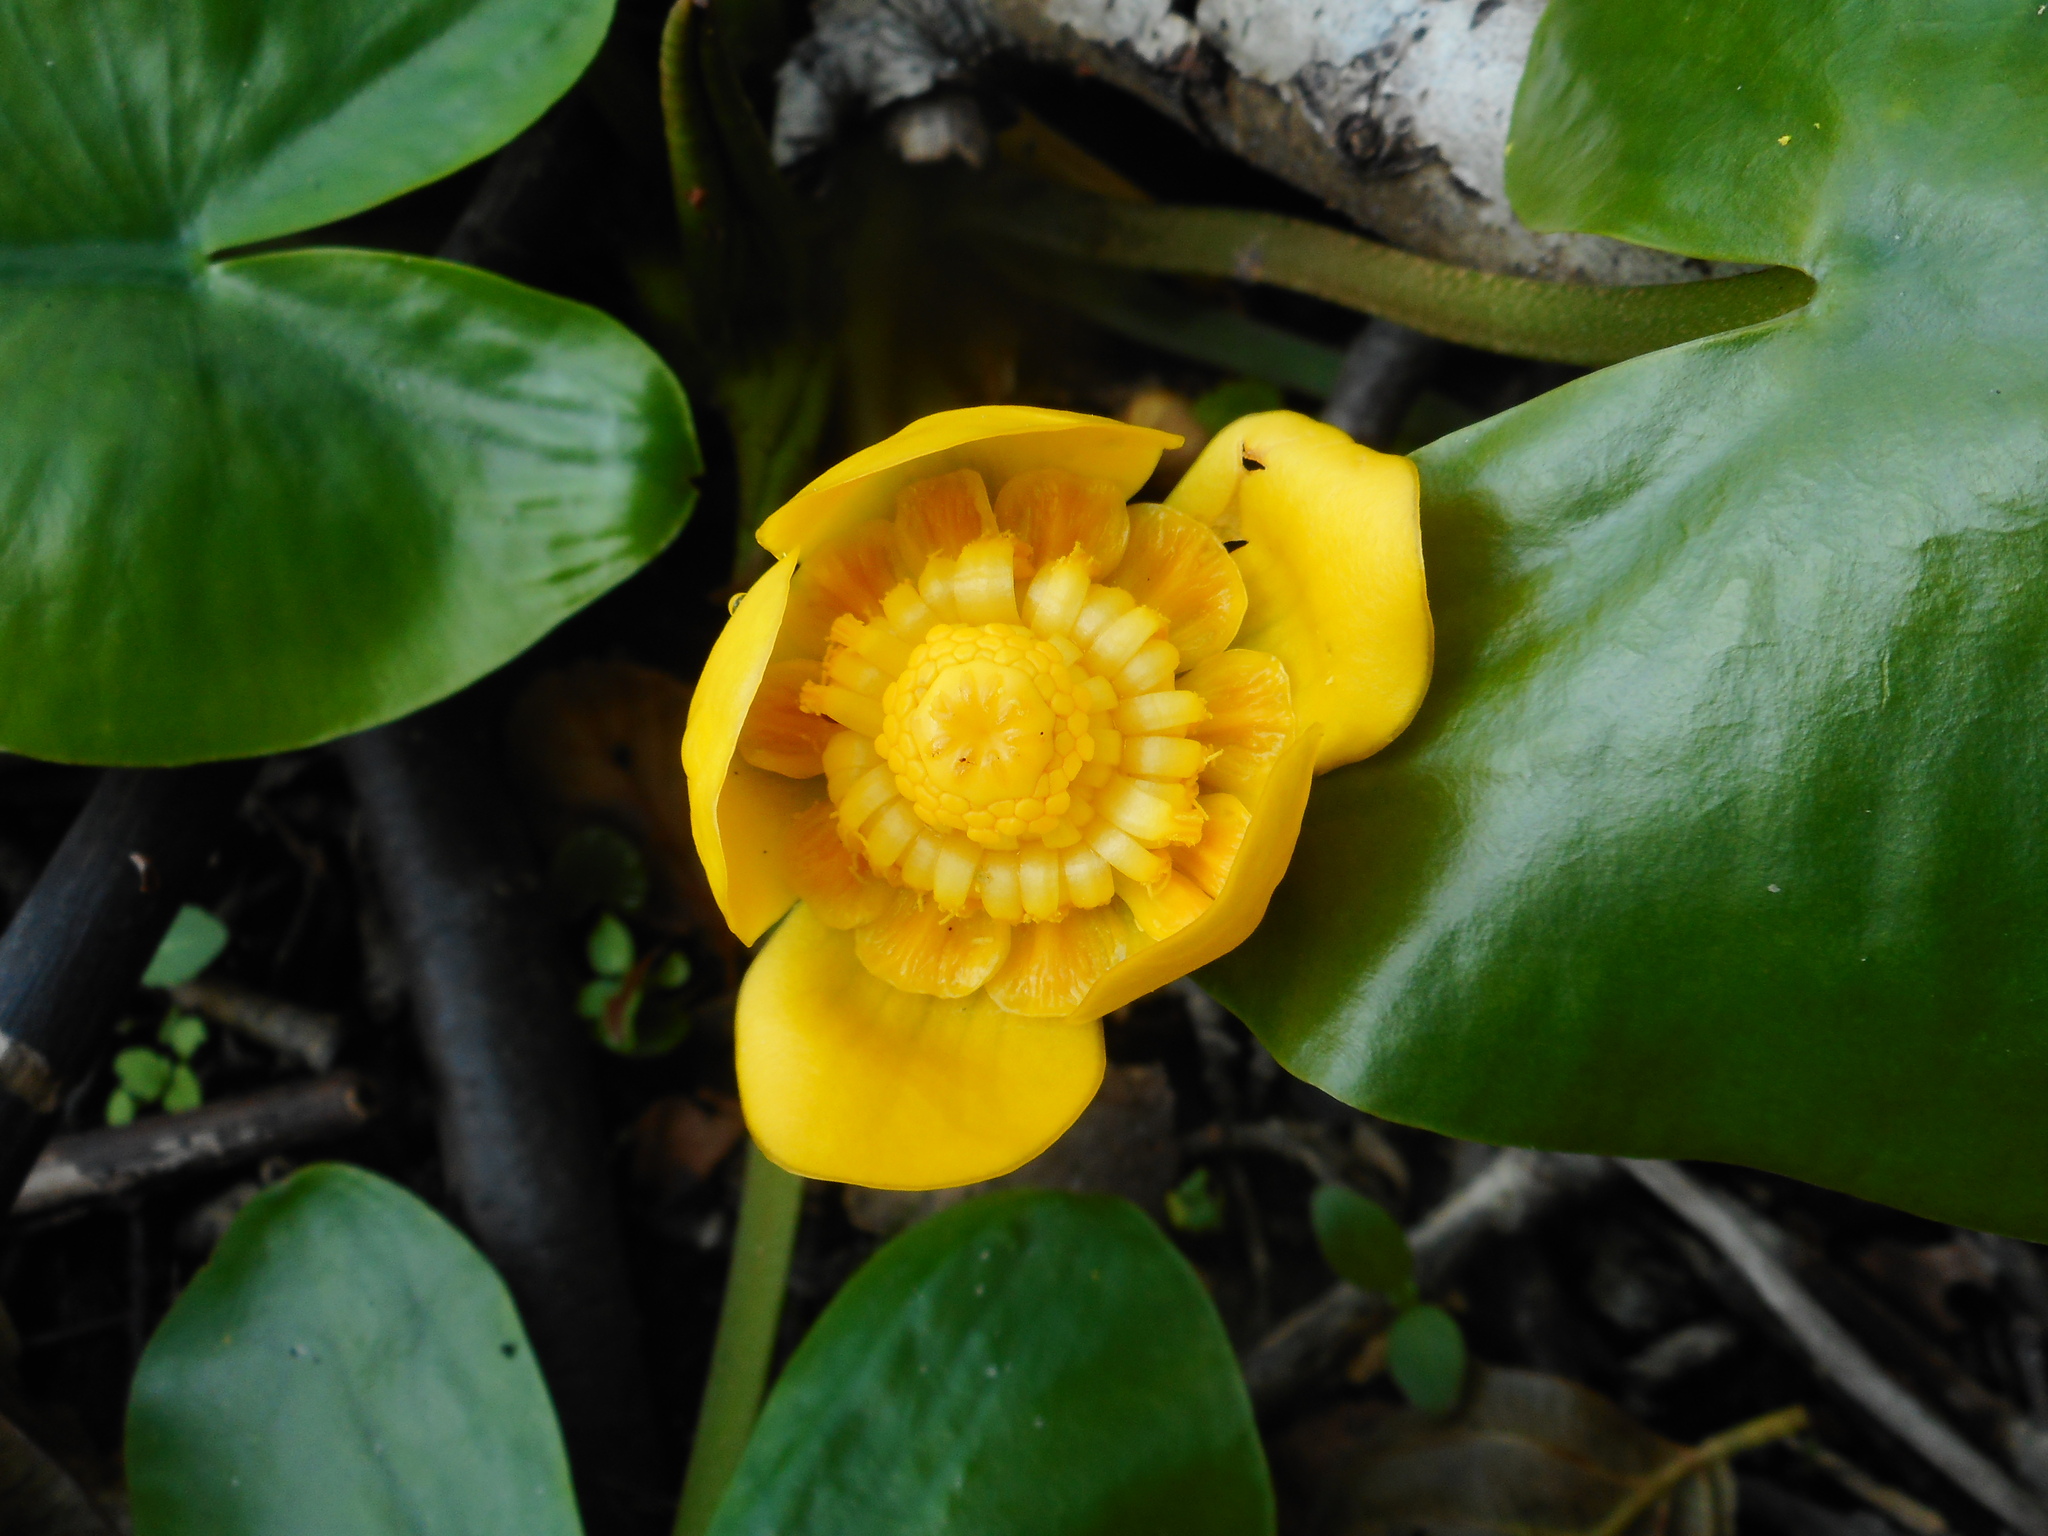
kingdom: Plantae
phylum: Tracheophyta
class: Magnoliopsida
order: Nymphaeales
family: Nymphaeaceae
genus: Nuphar
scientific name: Nuphar lutea
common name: Yellow water-lily
